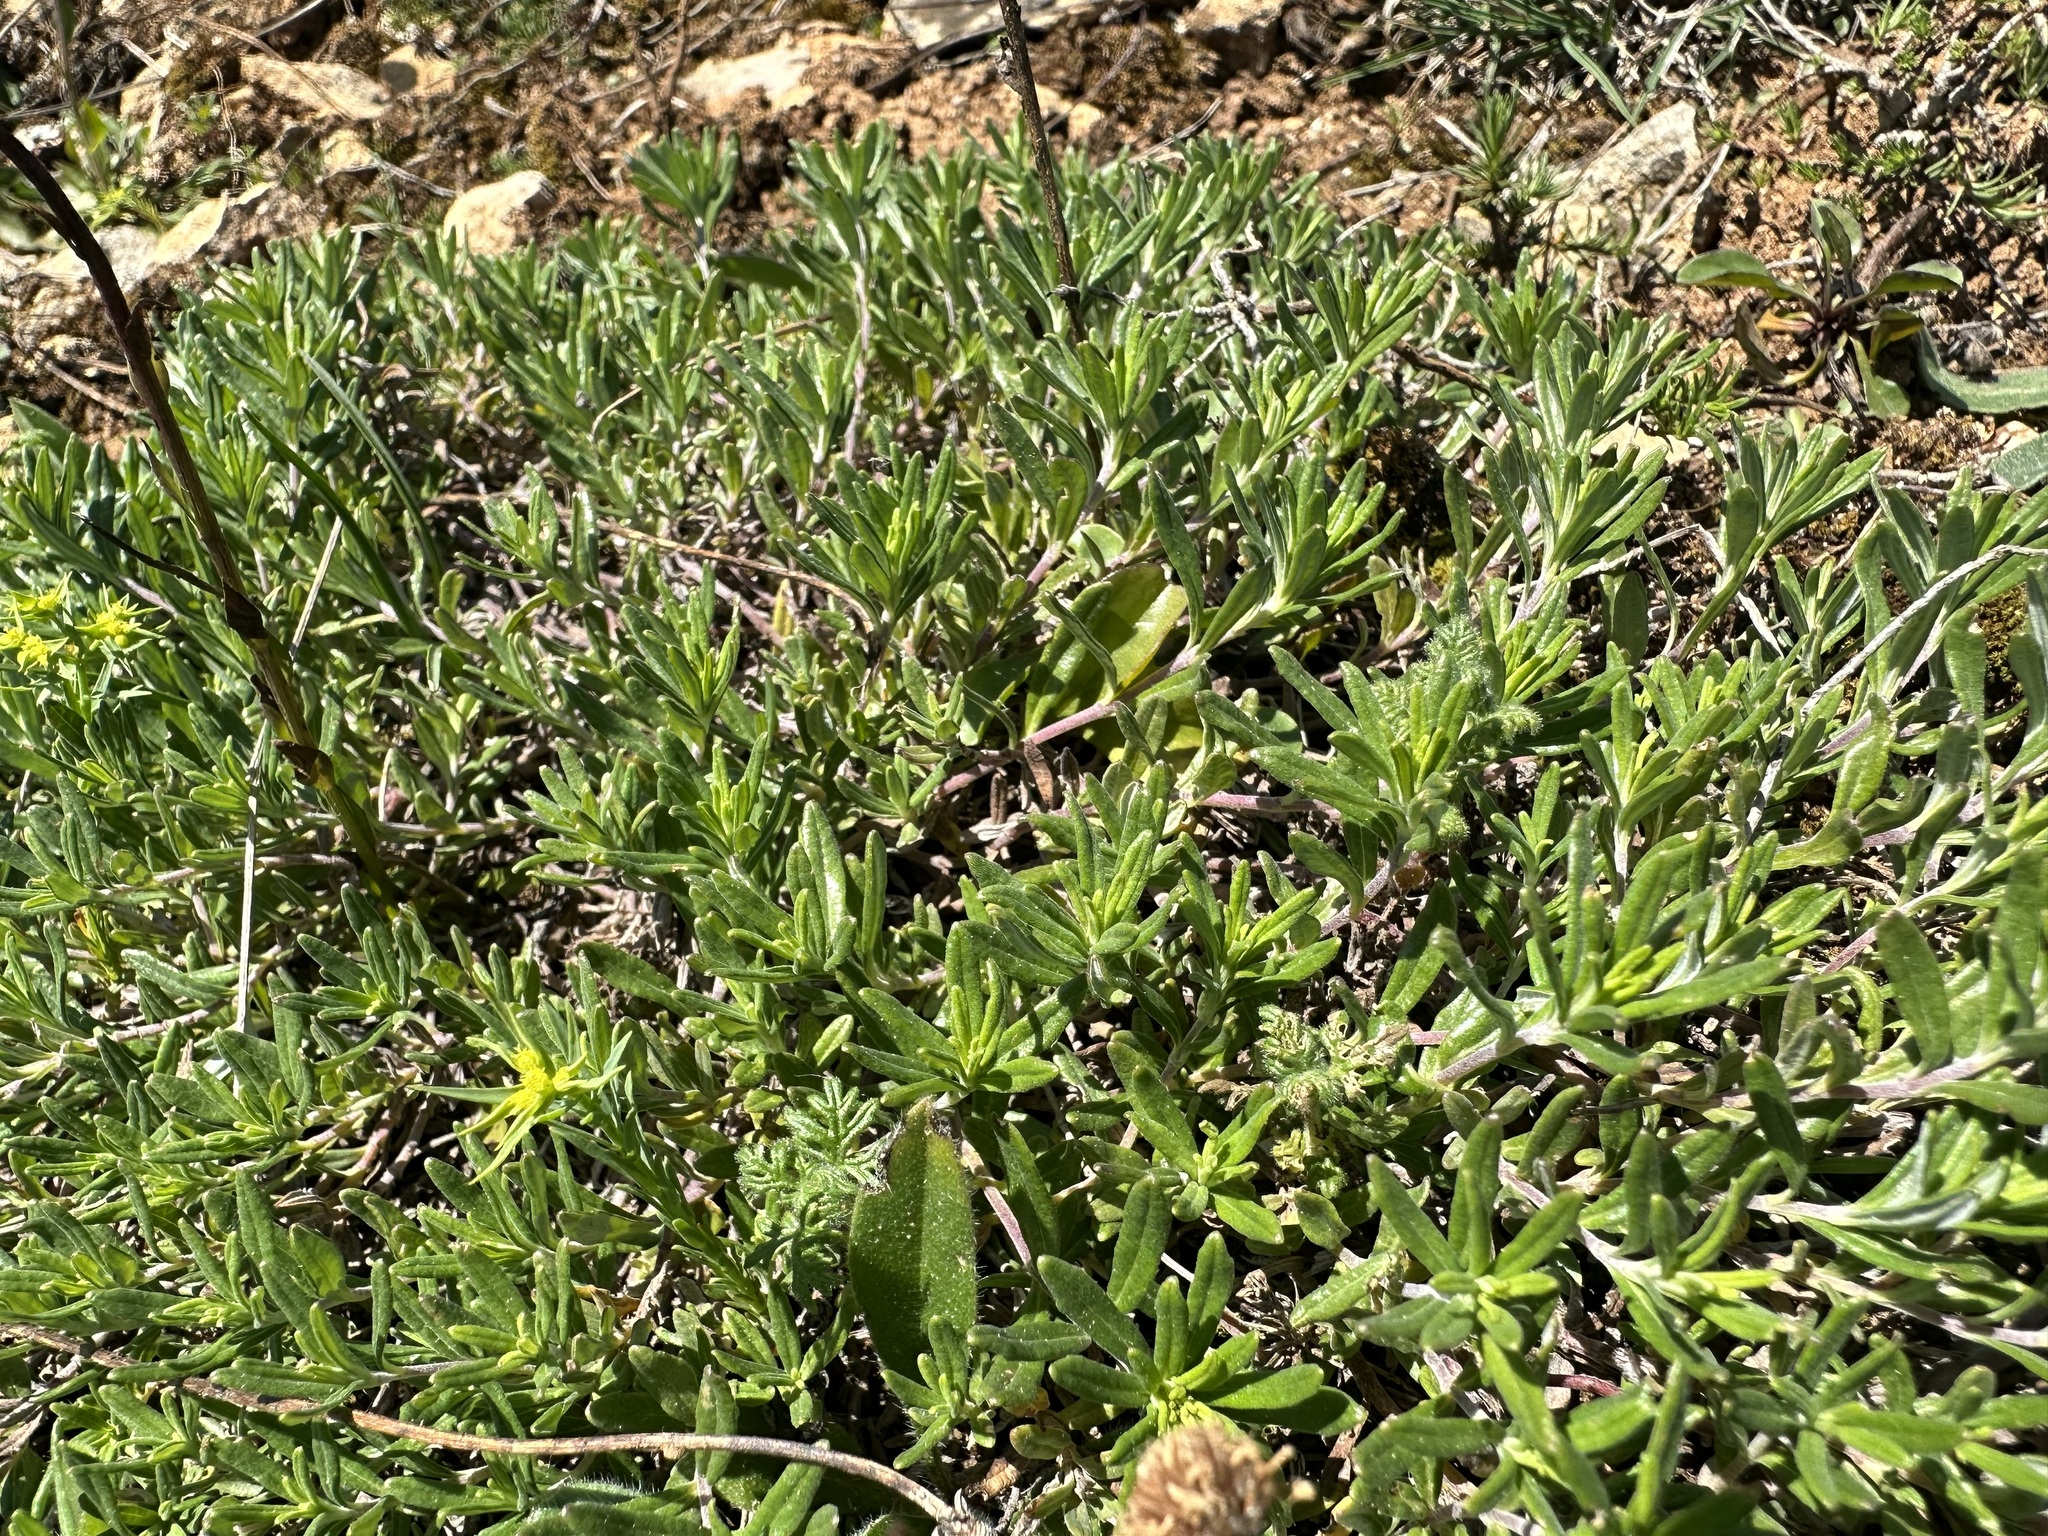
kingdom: Plantae
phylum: Tracheophyta
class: Magnoliopsida
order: Lamiales
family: Lamiaceae
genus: Teucrium
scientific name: Teucrium montanum
